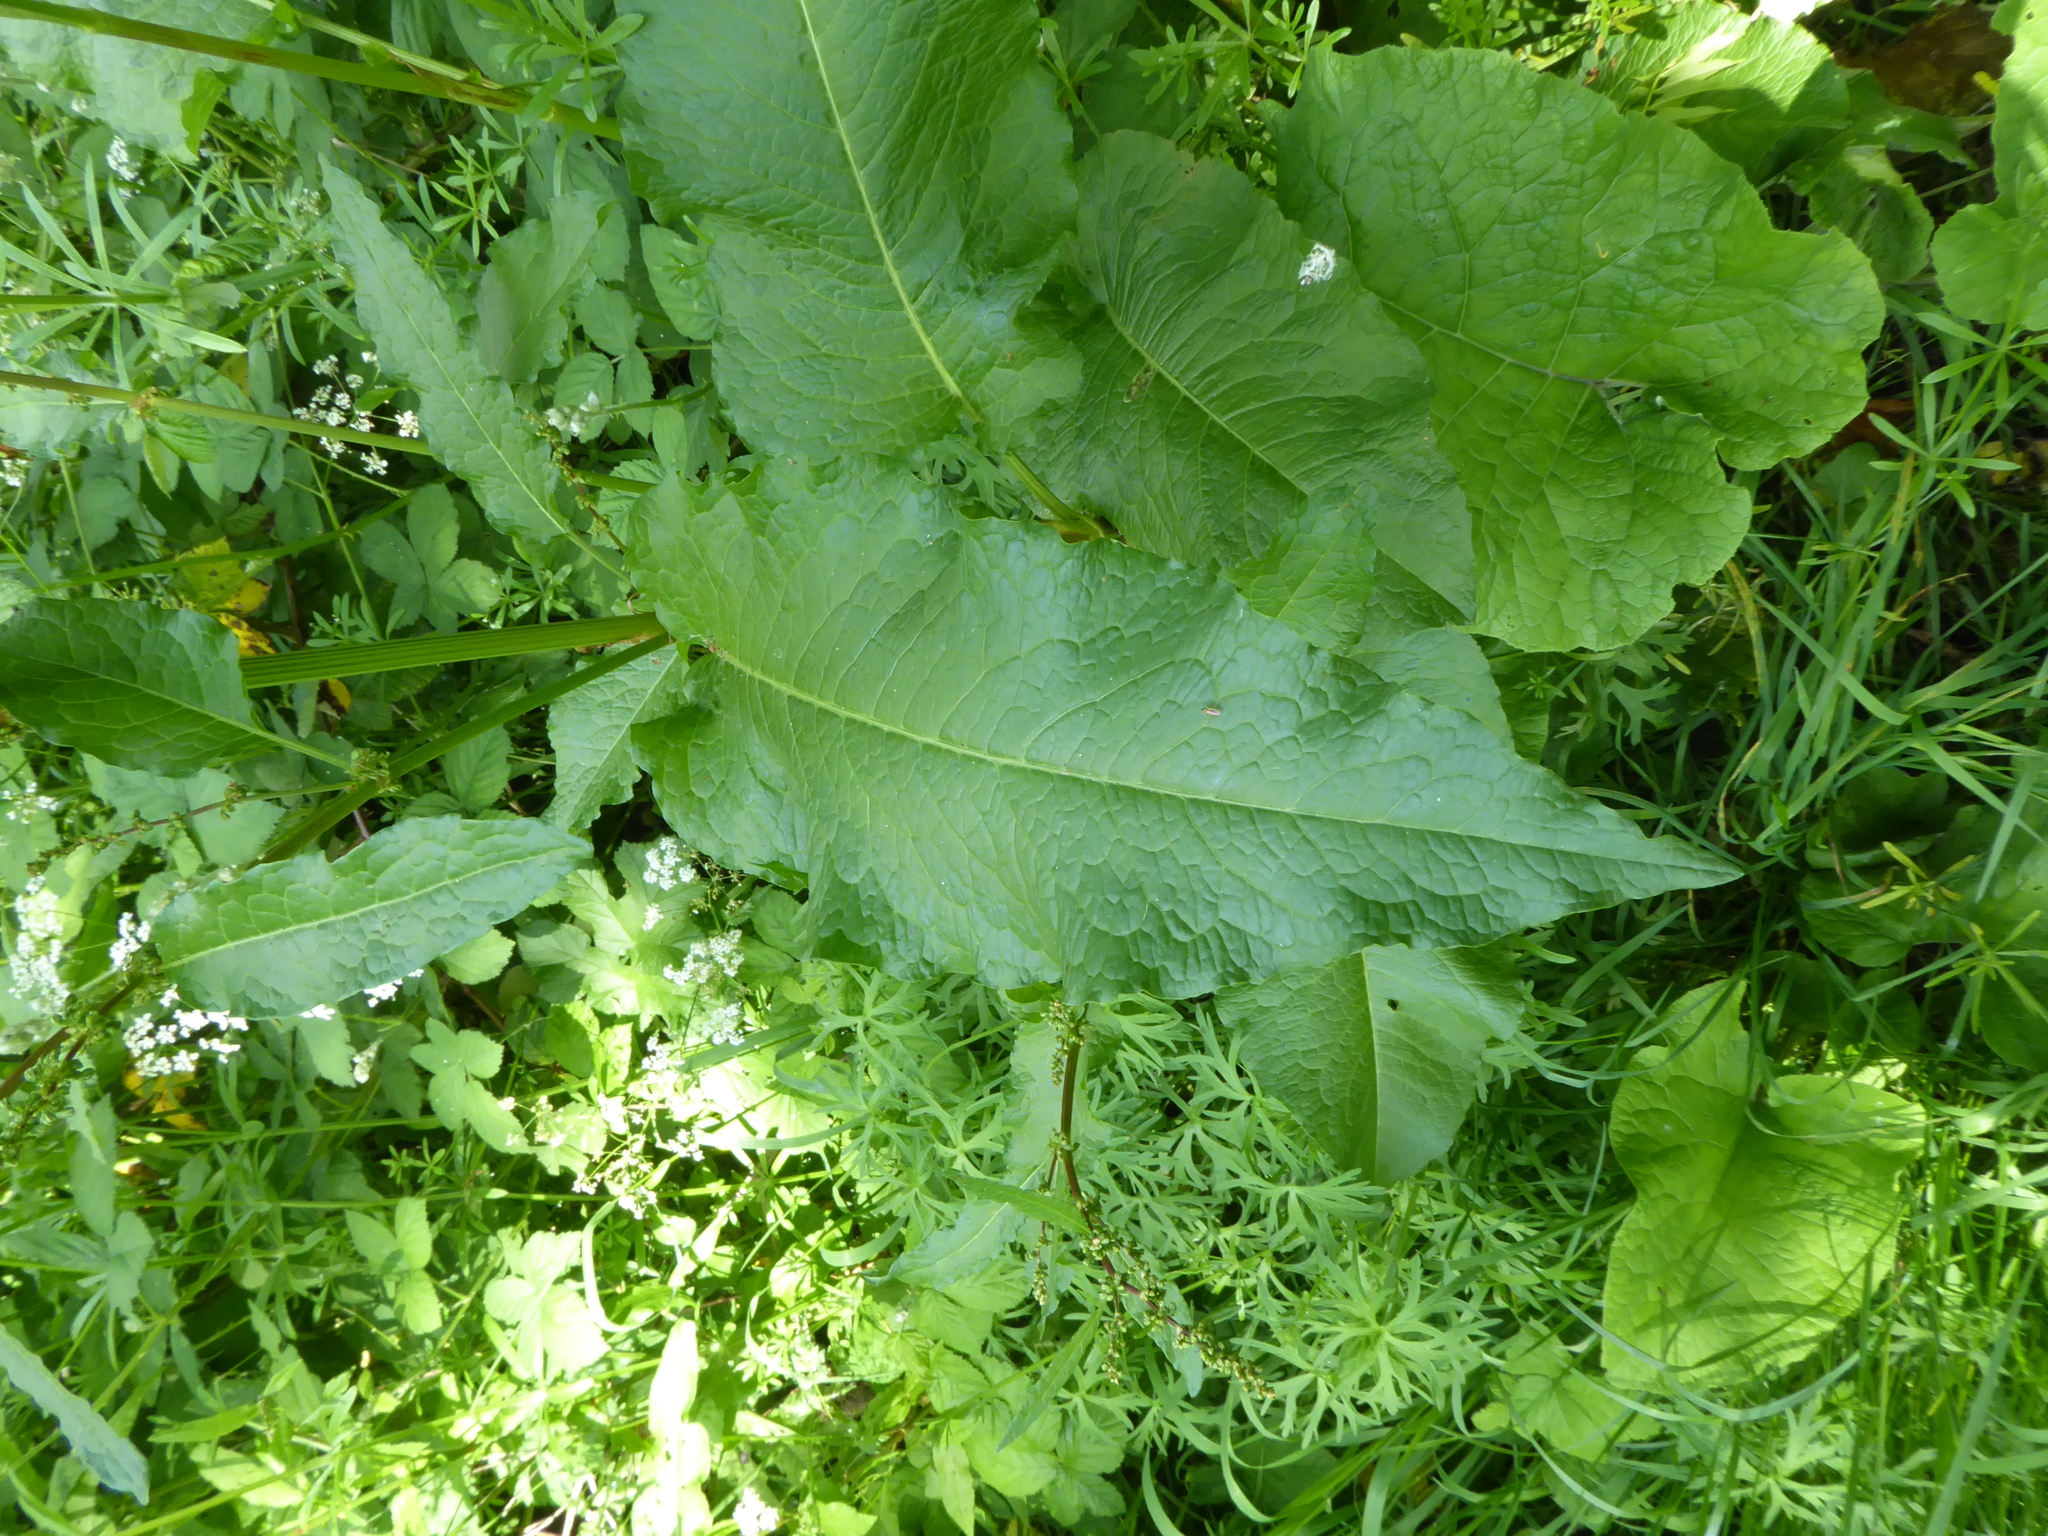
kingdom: Plantae
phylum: Tracheophyta
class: Magnoliopsida
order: Caryophyllales
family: Polygonaceae
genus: Rumex
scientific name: Rumex cristatus
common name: Greek dock
